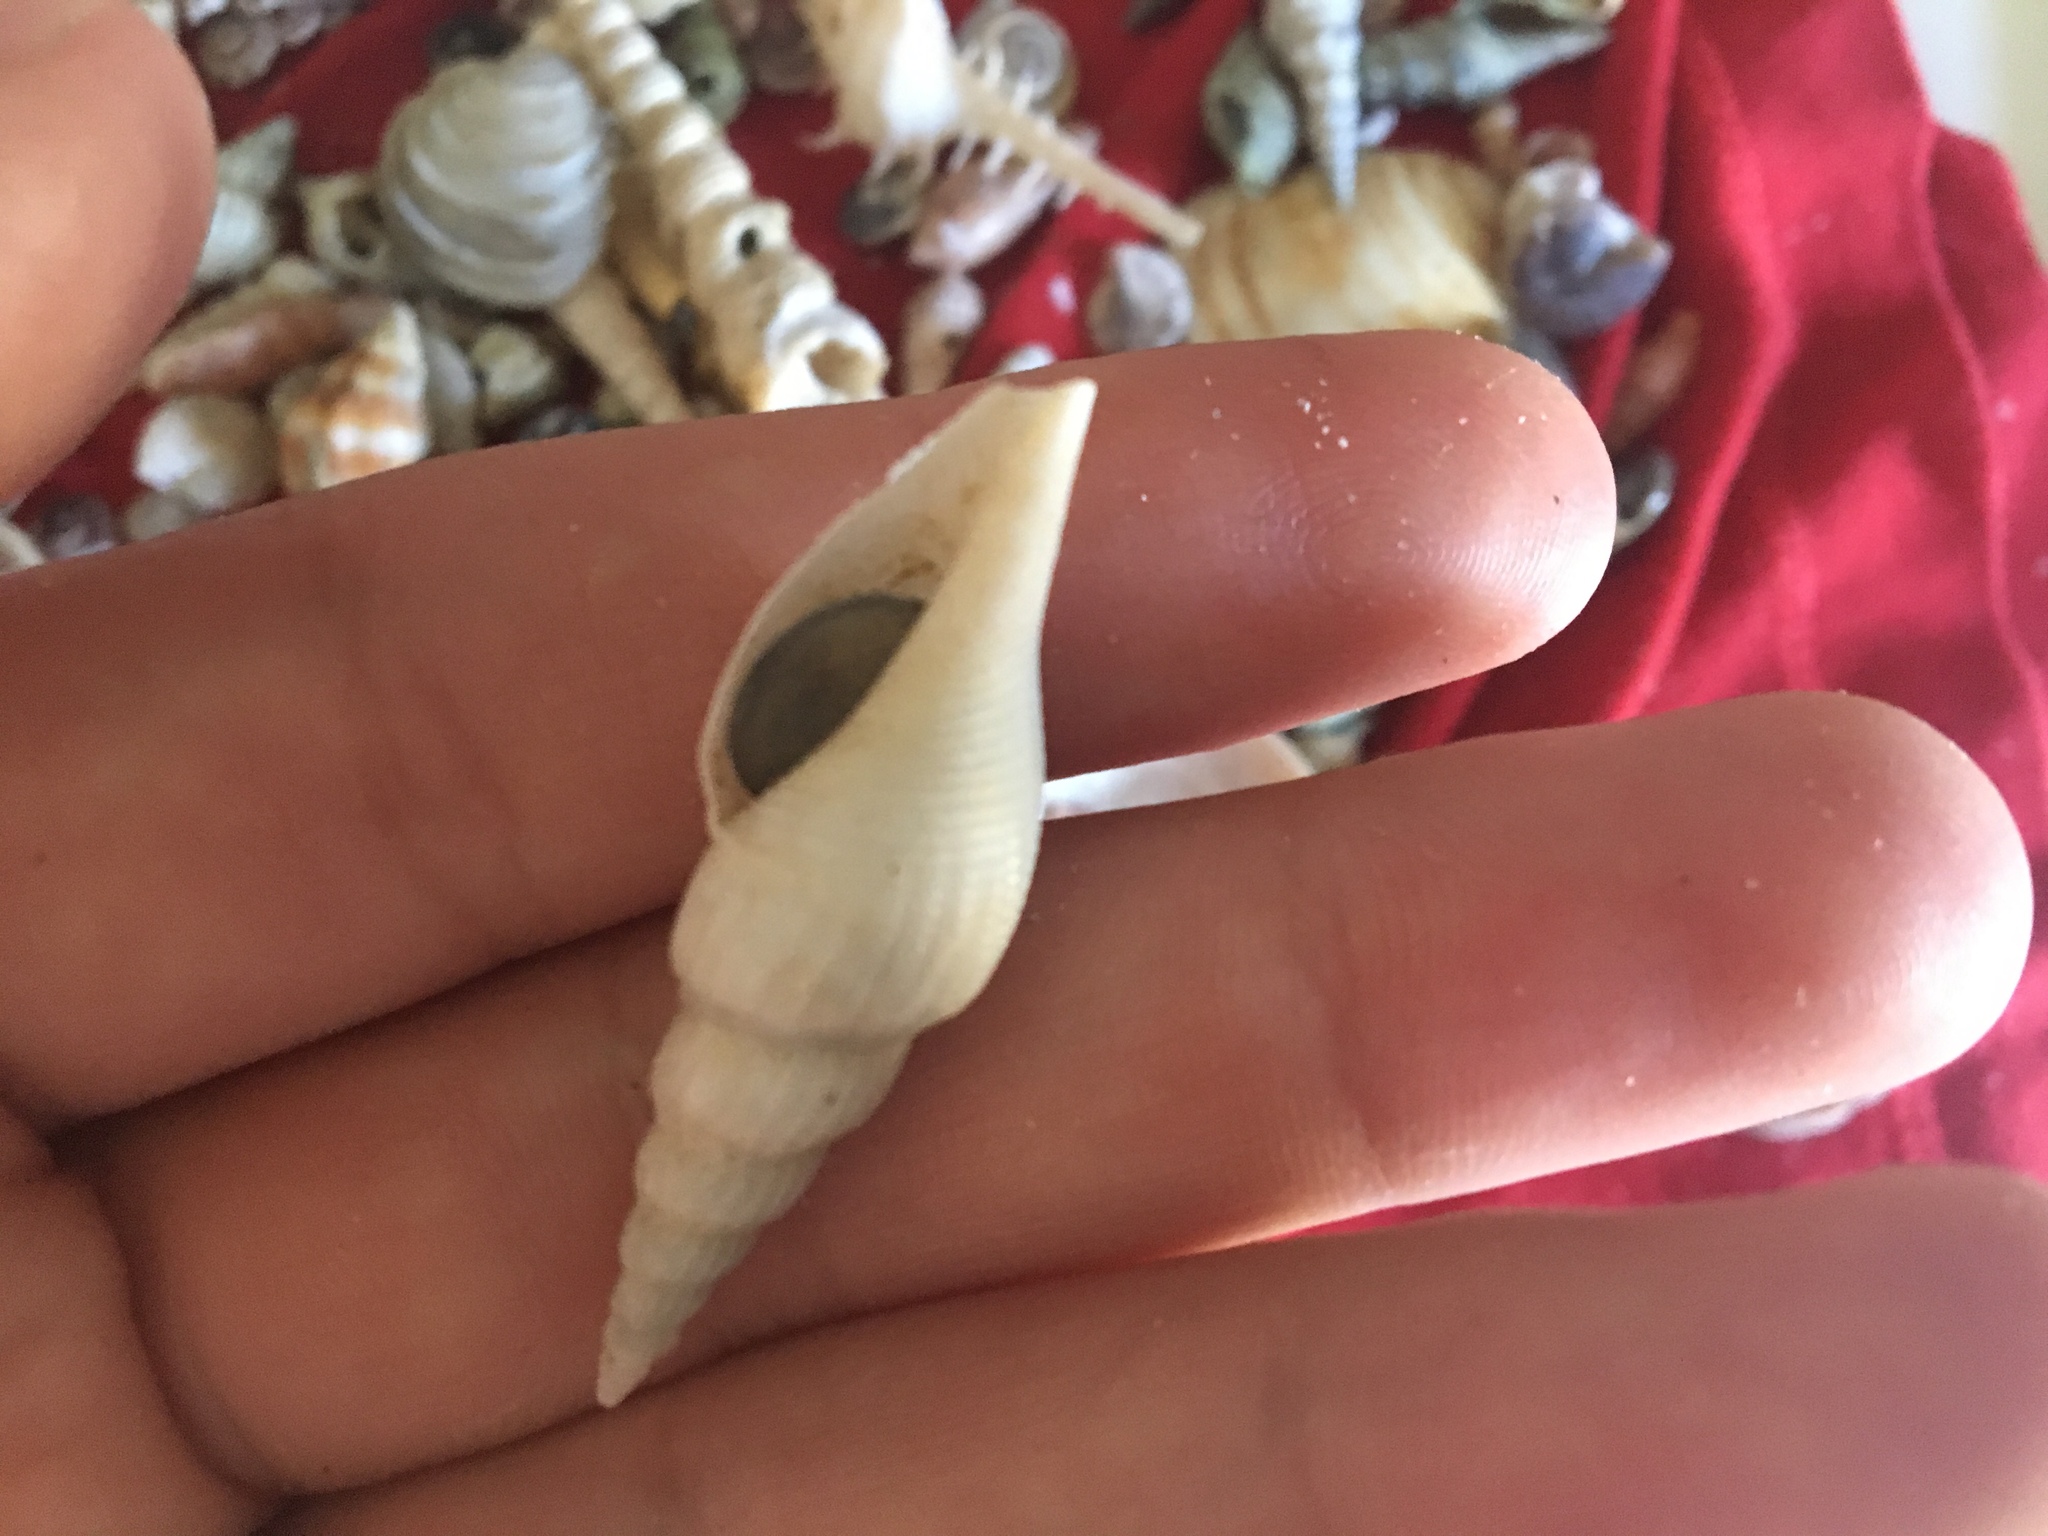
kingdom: Animalia
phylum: Mollusca
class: Gastropoda
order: Littorinimorpha
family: Strombidae
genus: Doxander
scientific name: Doxander vittatus
